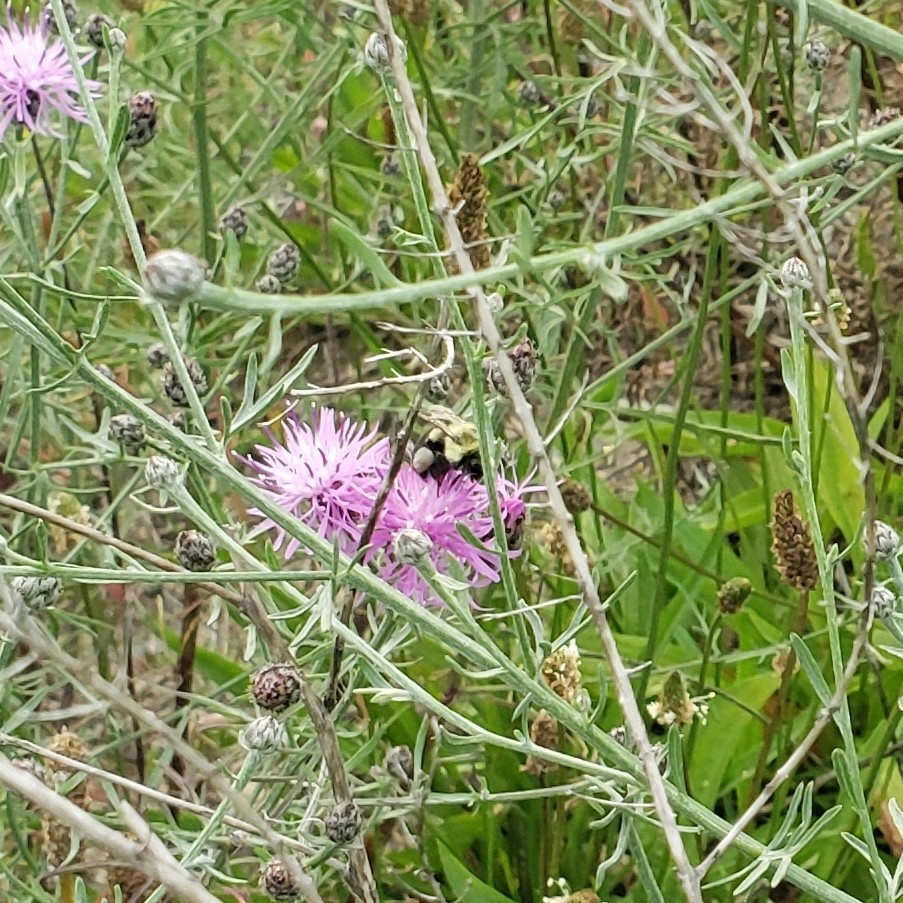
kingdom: Animalia
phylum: Arthropoda
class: Insecta
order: Hymenoptera
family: Apidae
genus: Bombus
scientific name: Bombus impatiens
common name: Common eastern bumble bee
